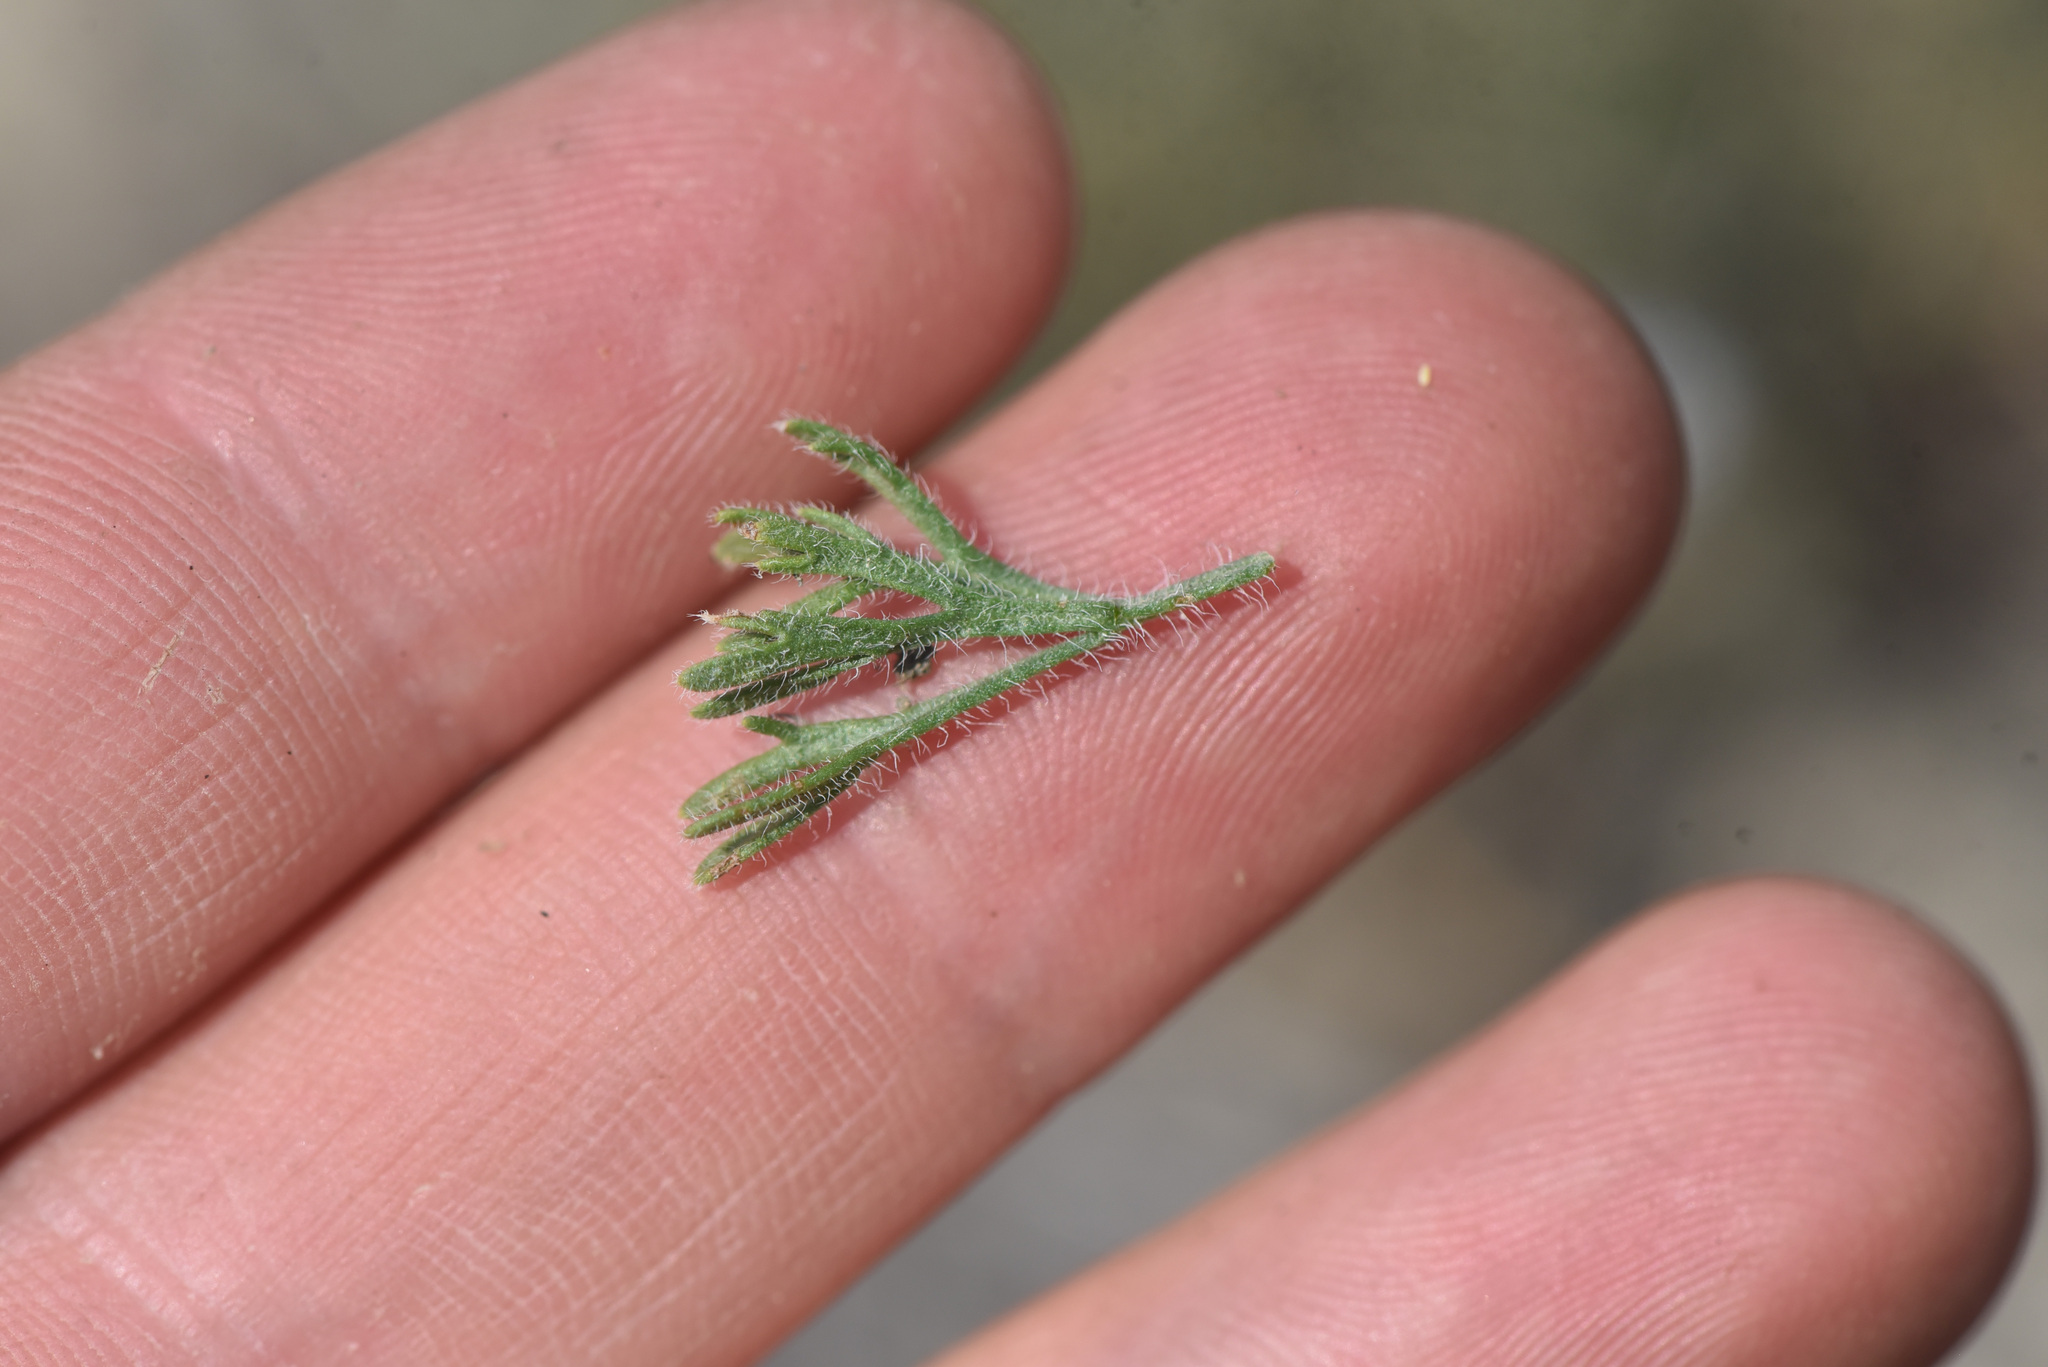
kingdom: Plantae
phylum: Tracheophyta
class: Magnoliopsida
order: Asterales
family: Asteraceae
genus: Erigeron
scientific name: Erigeron compositus
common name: Dwarf mountain fleabane
